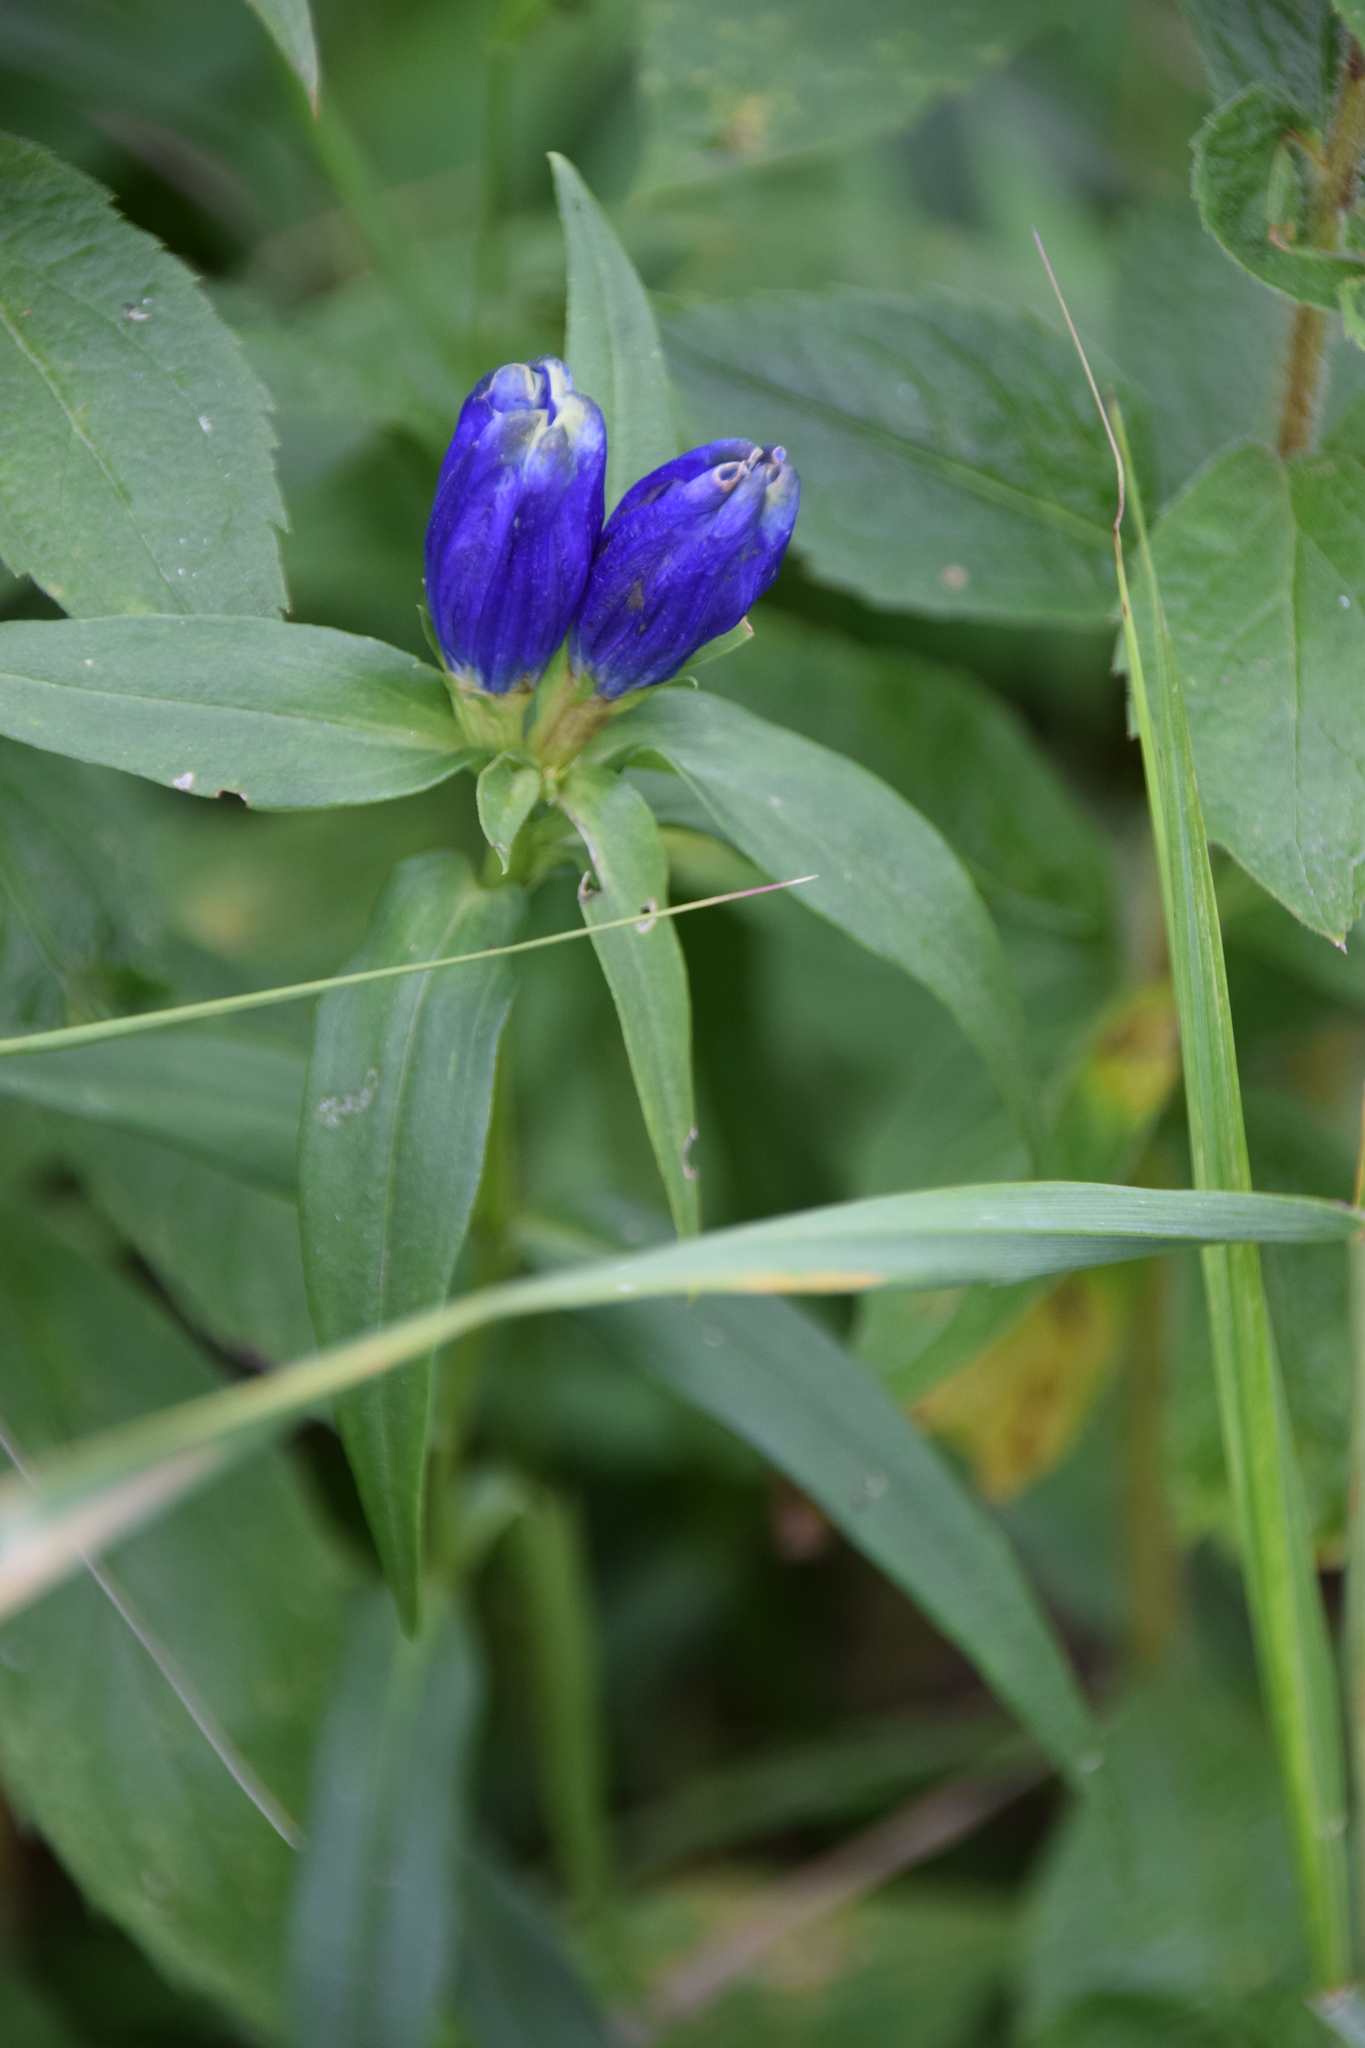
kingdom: Plantae
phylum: Tracheophyta
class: Magnoliopsida
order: Gentianales
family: Gentianaceae
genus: Gentiana
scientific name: Gentiana linearis
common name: Bastard gentian
